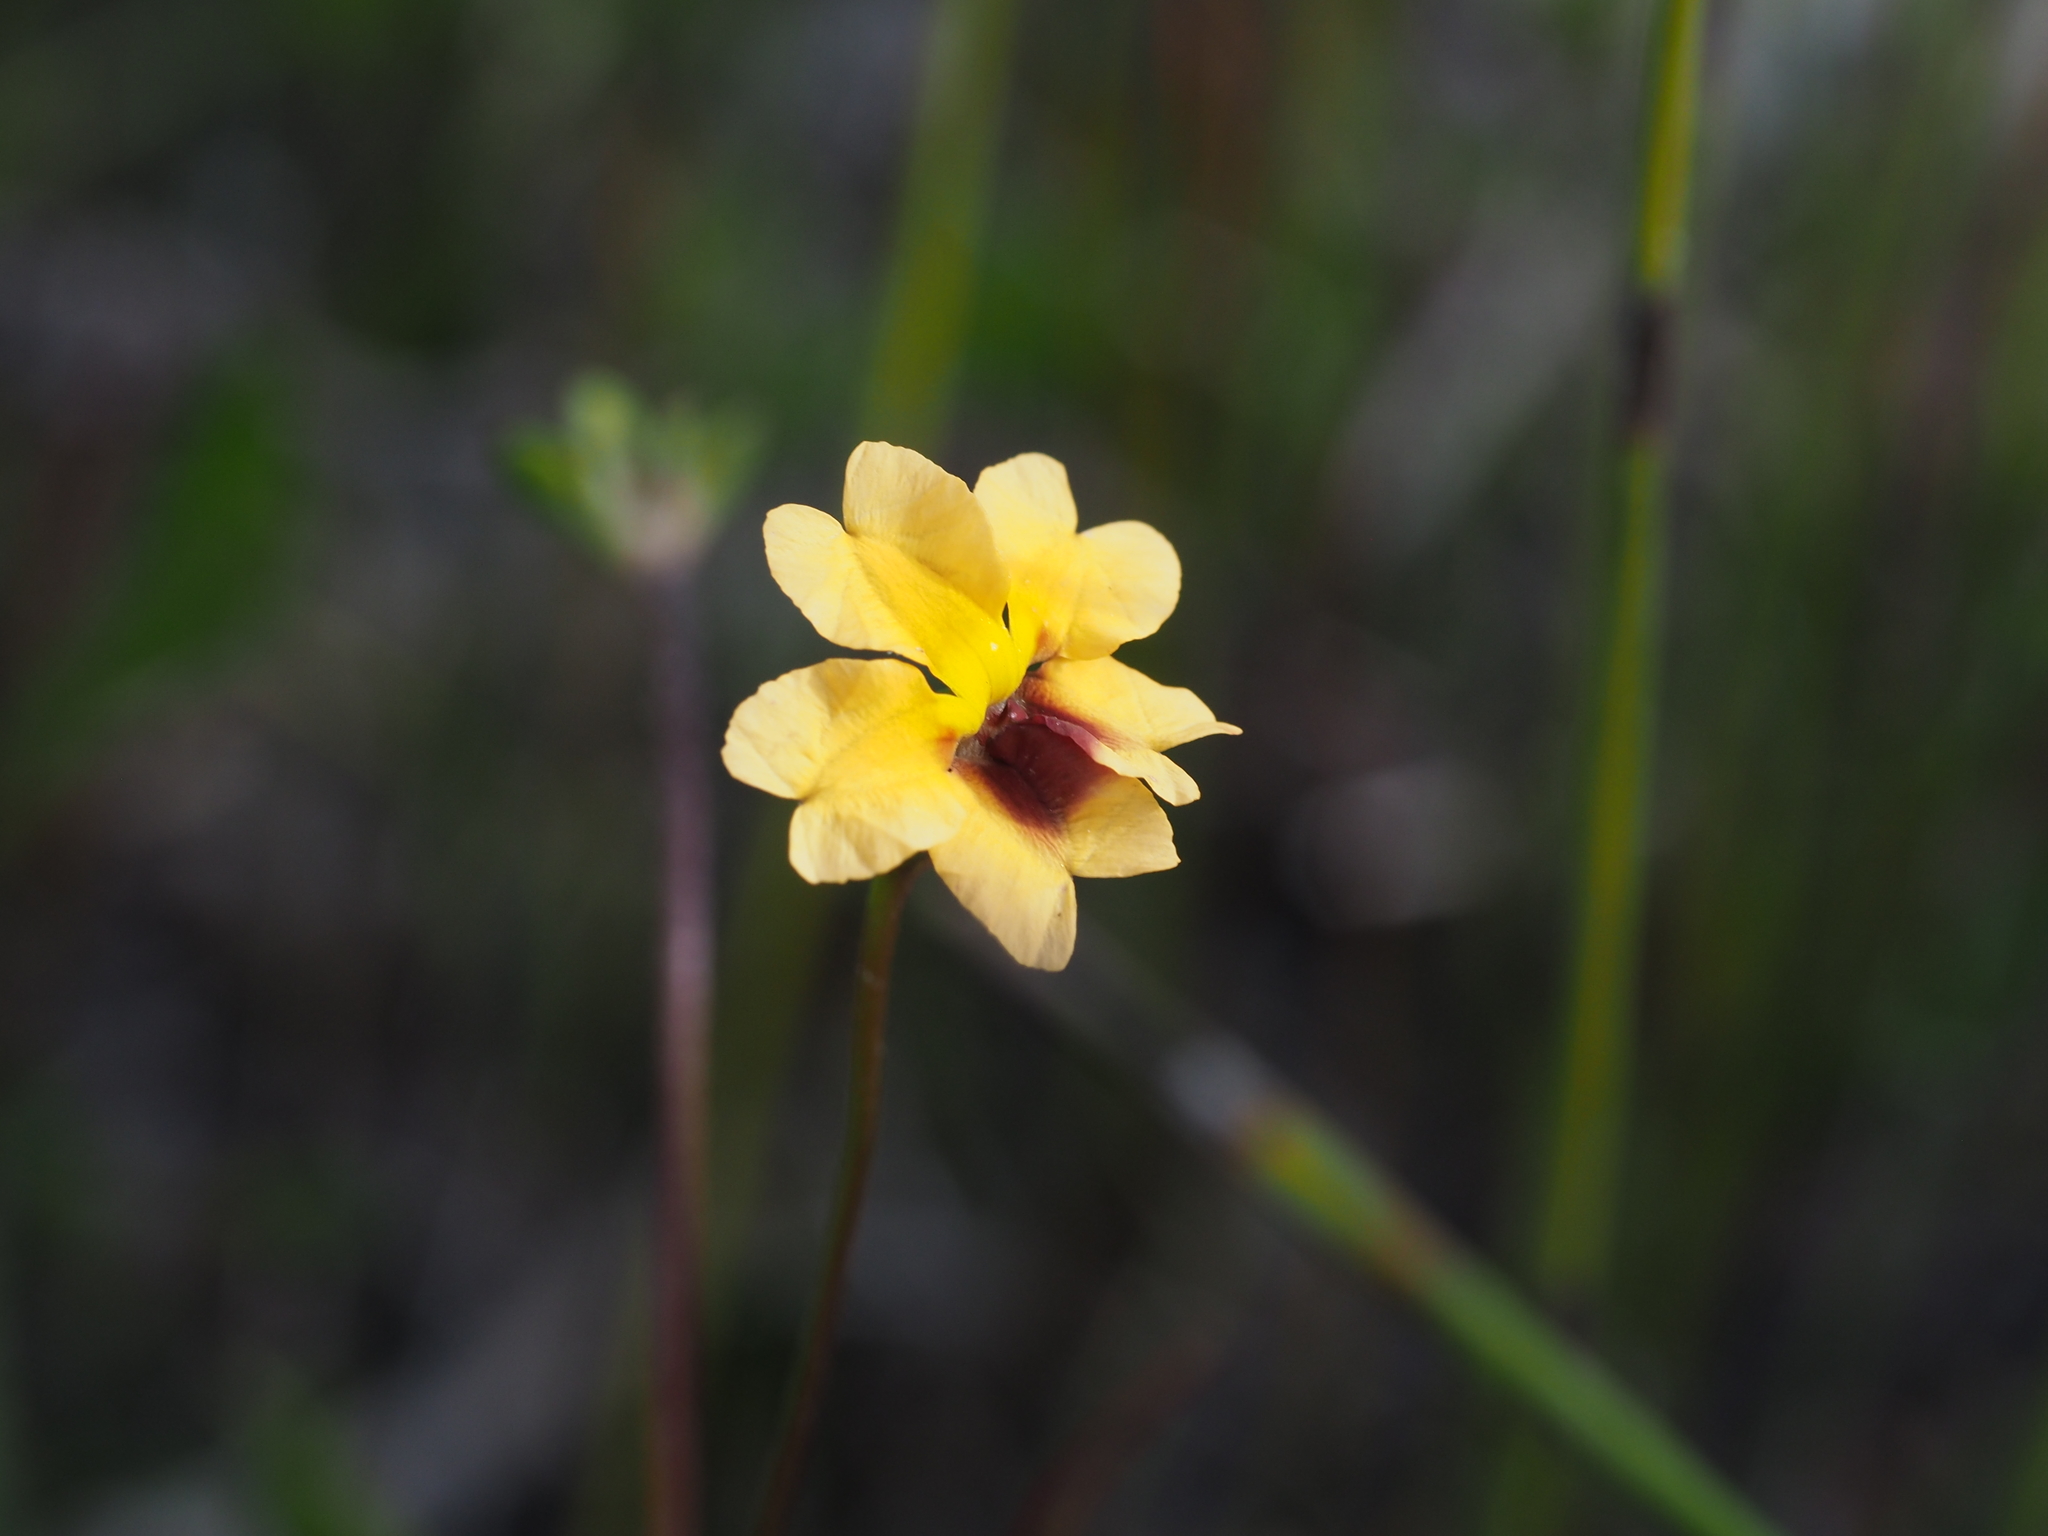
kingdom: Plantae
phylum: Tracheophyta
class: Magnoliopsida
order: Asterales
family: Goodeniaceae
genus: Goodenia
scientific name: Goodenia trinervis
